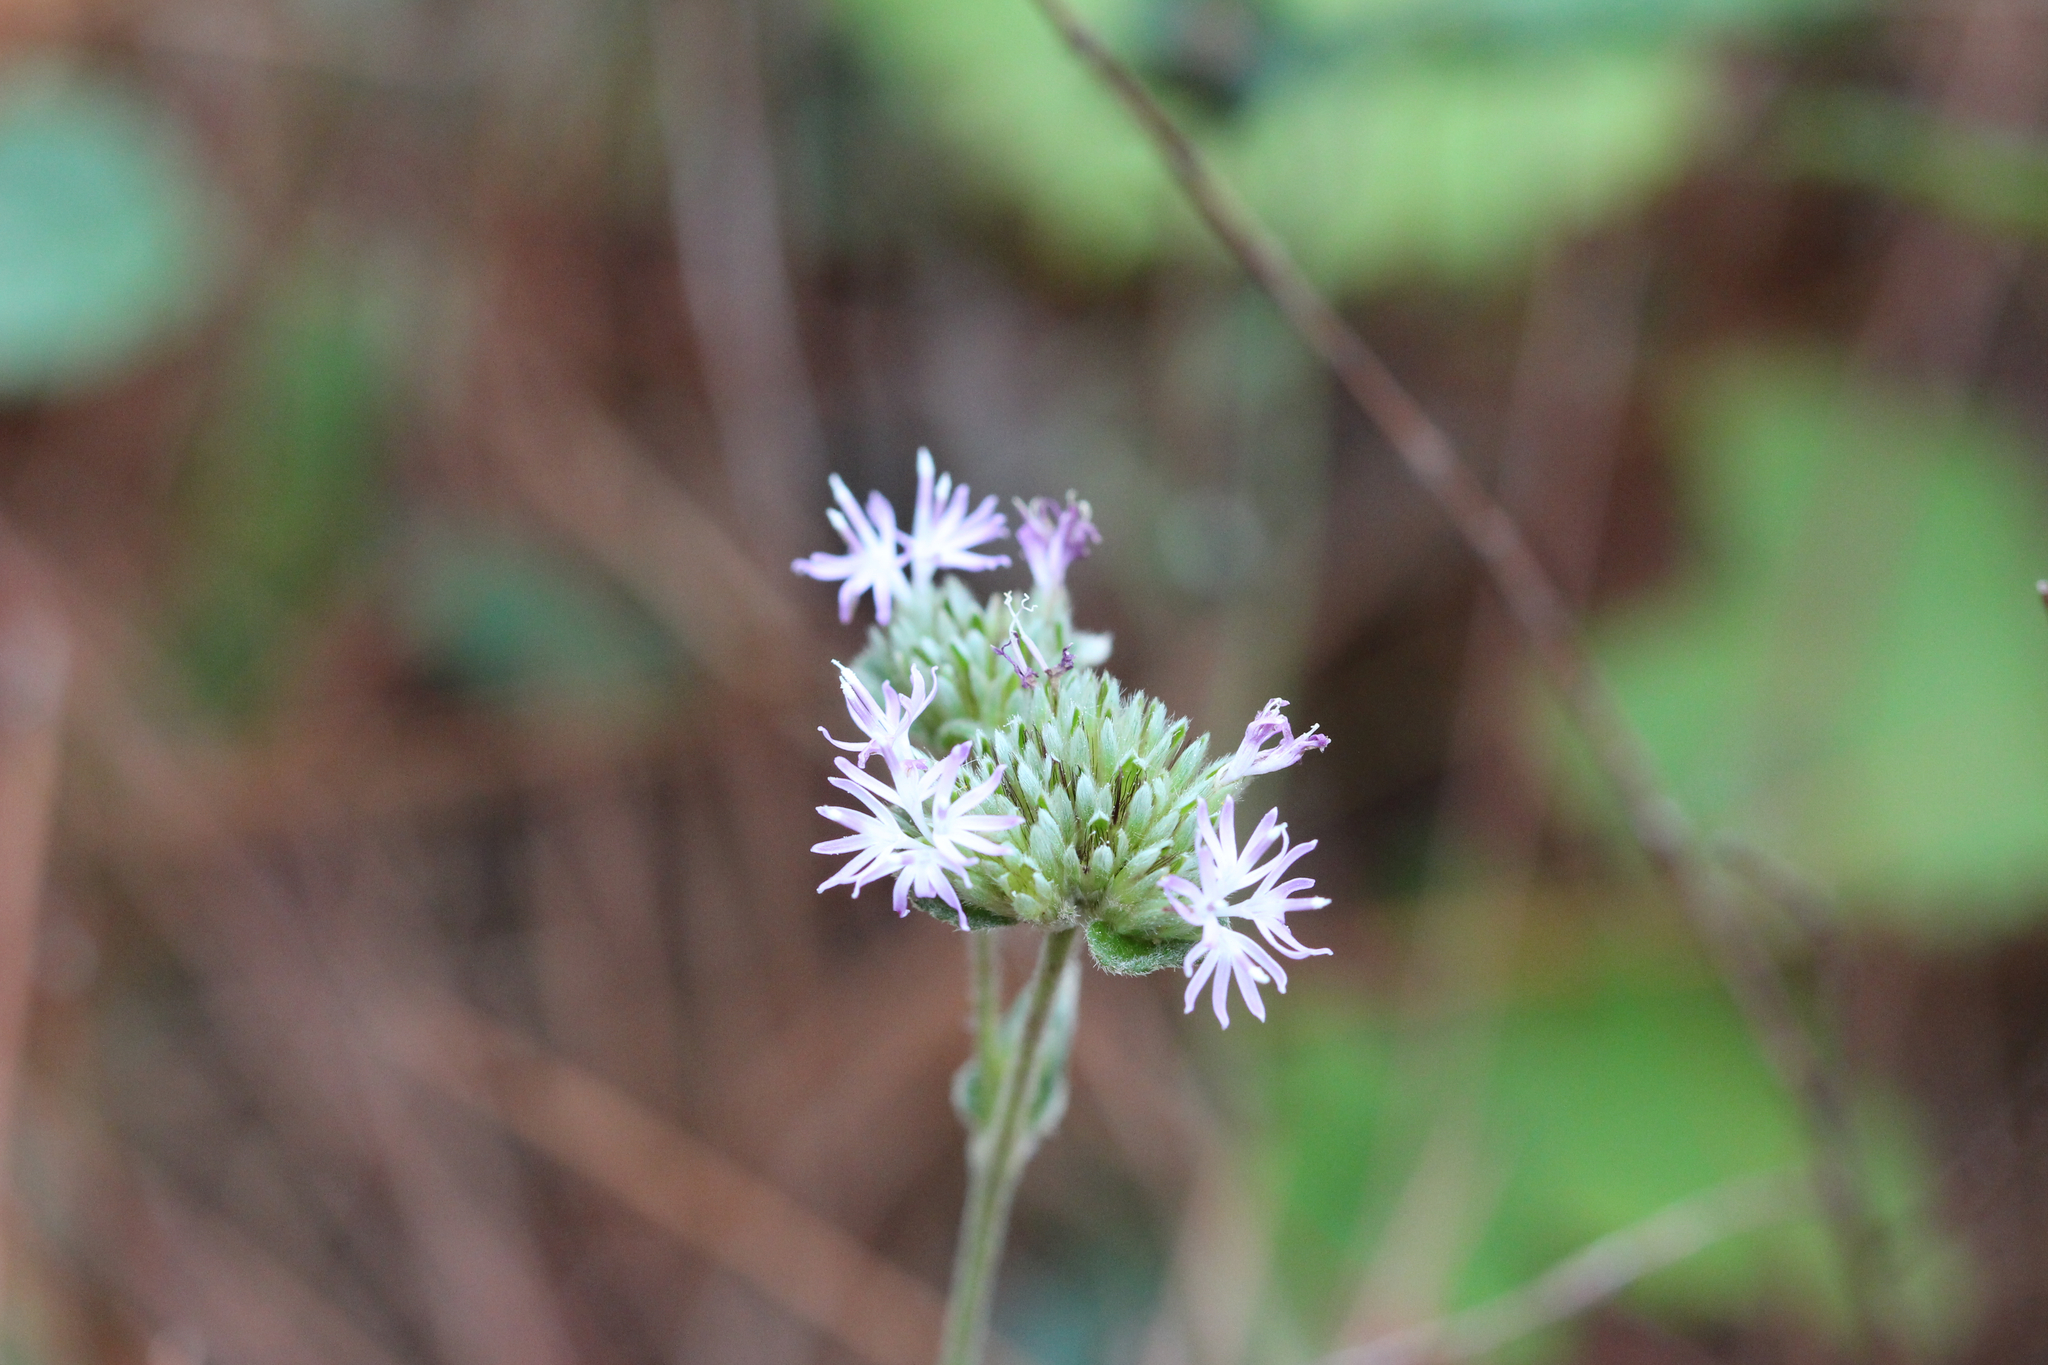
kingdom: Plantae
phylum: Tracheophyta
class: Magnoliopsida
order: Asterales
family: Asteraceae
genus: Elephantopus
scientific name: Elephantopus elatus
